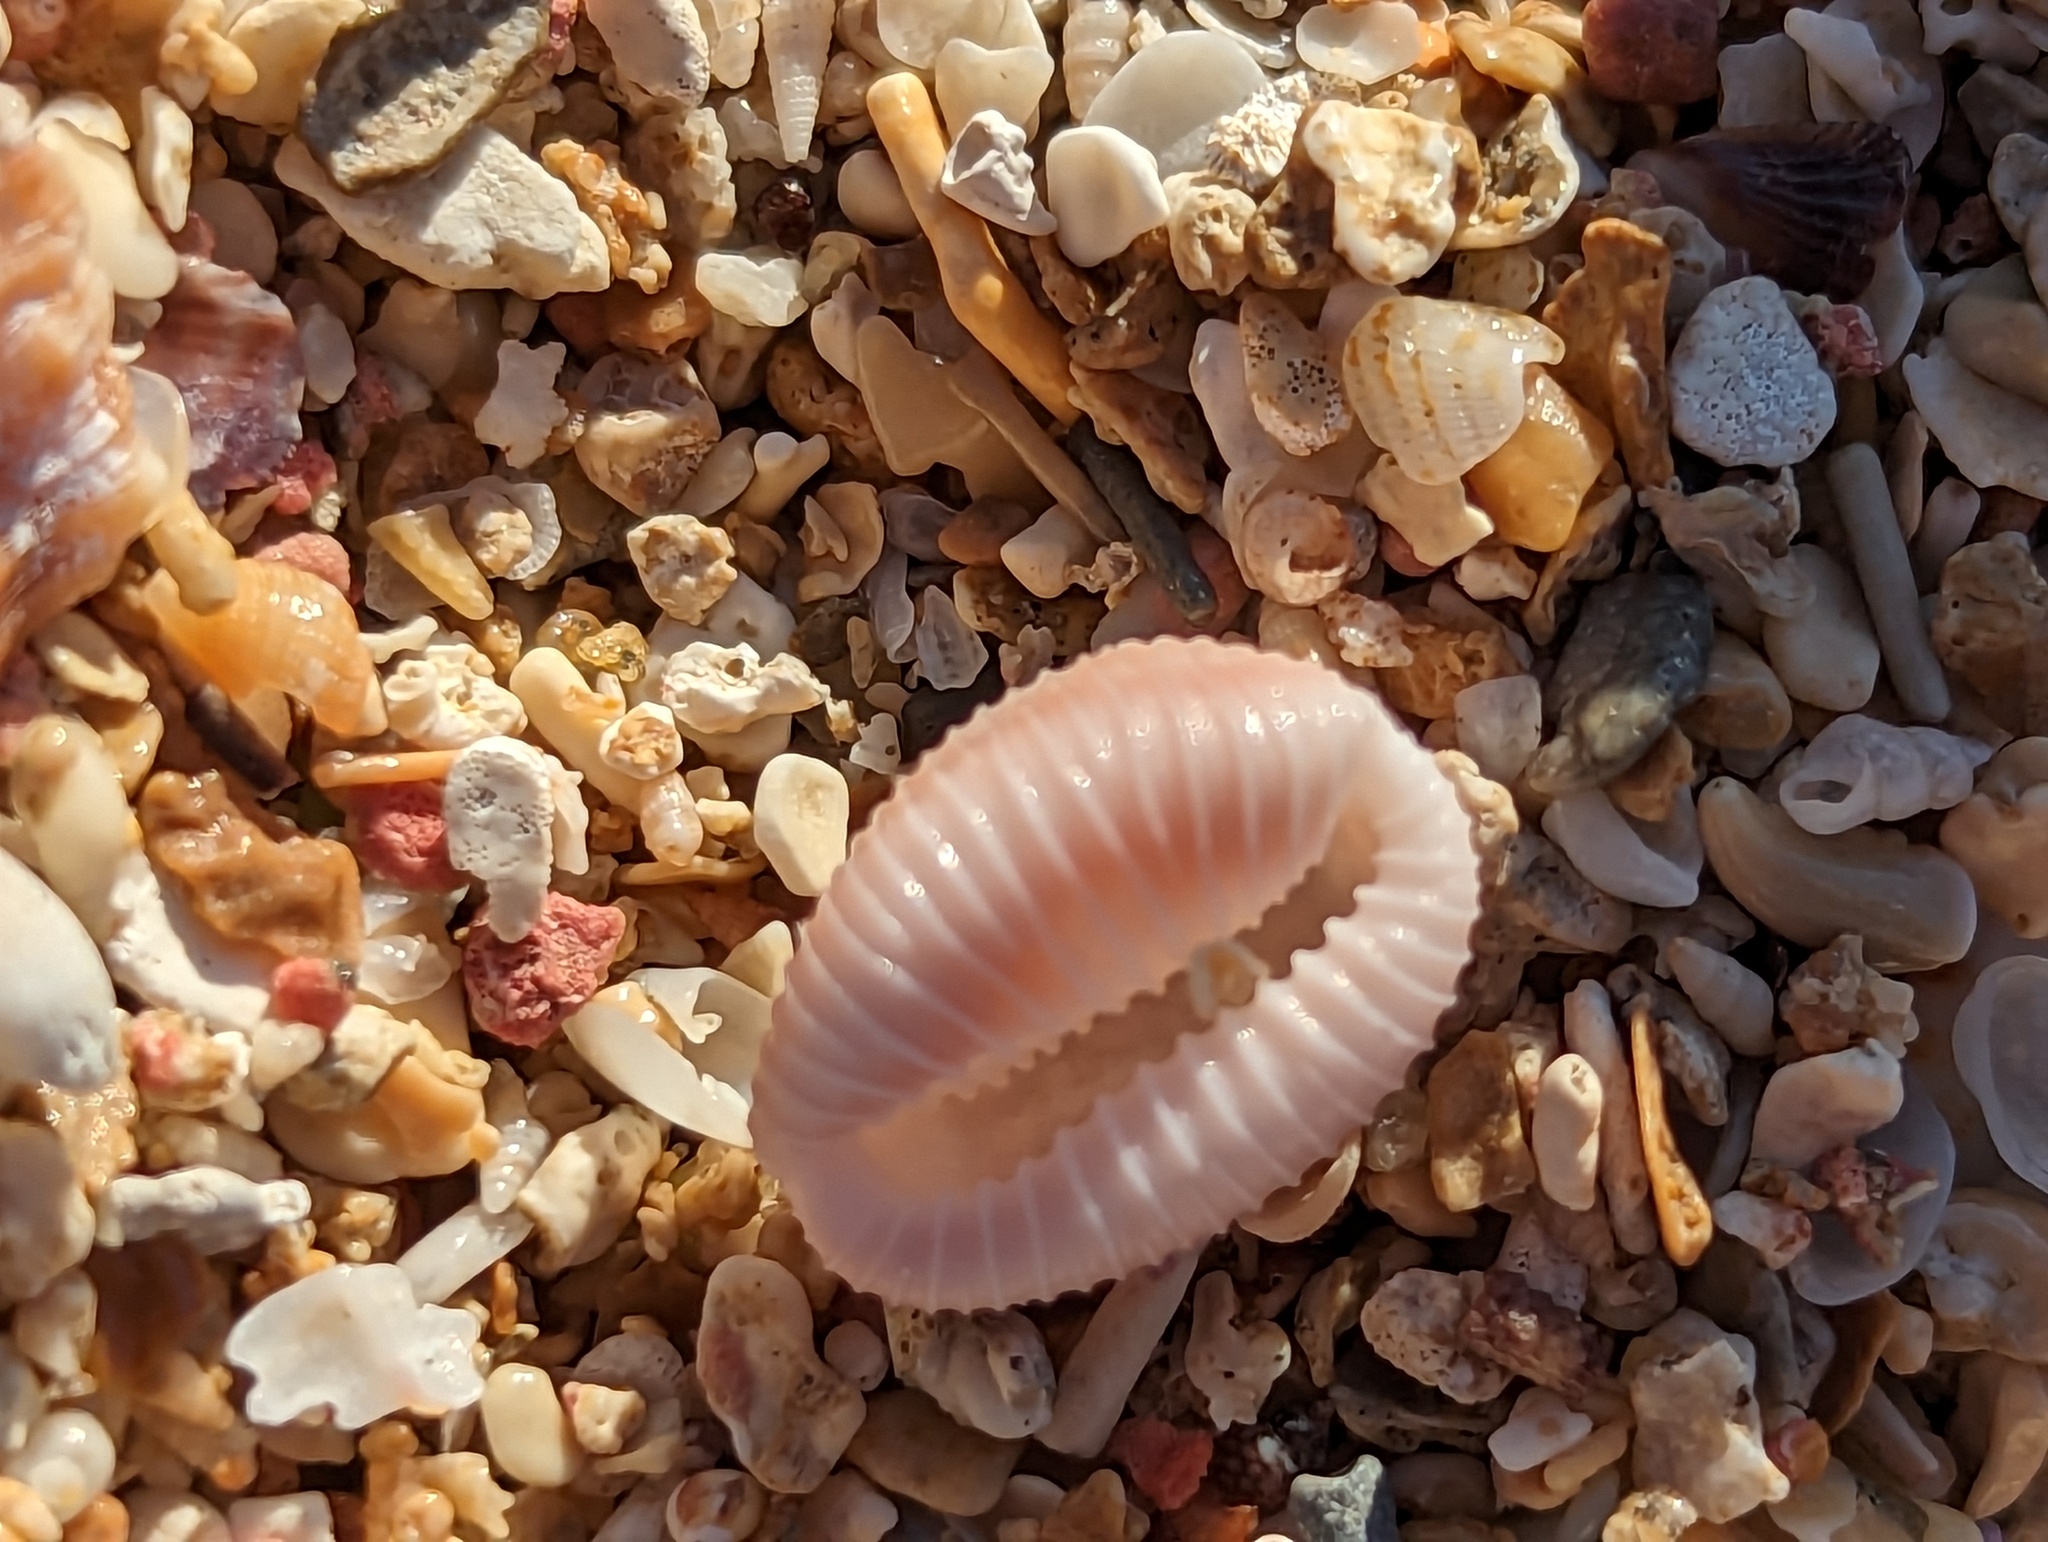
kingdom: Animalia
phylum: Mollusca
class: Gastropoda
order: Littorinimorpha
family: Triviidae
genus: Pusula
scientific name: Pusula pediculus
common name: Coffee bean trivia
